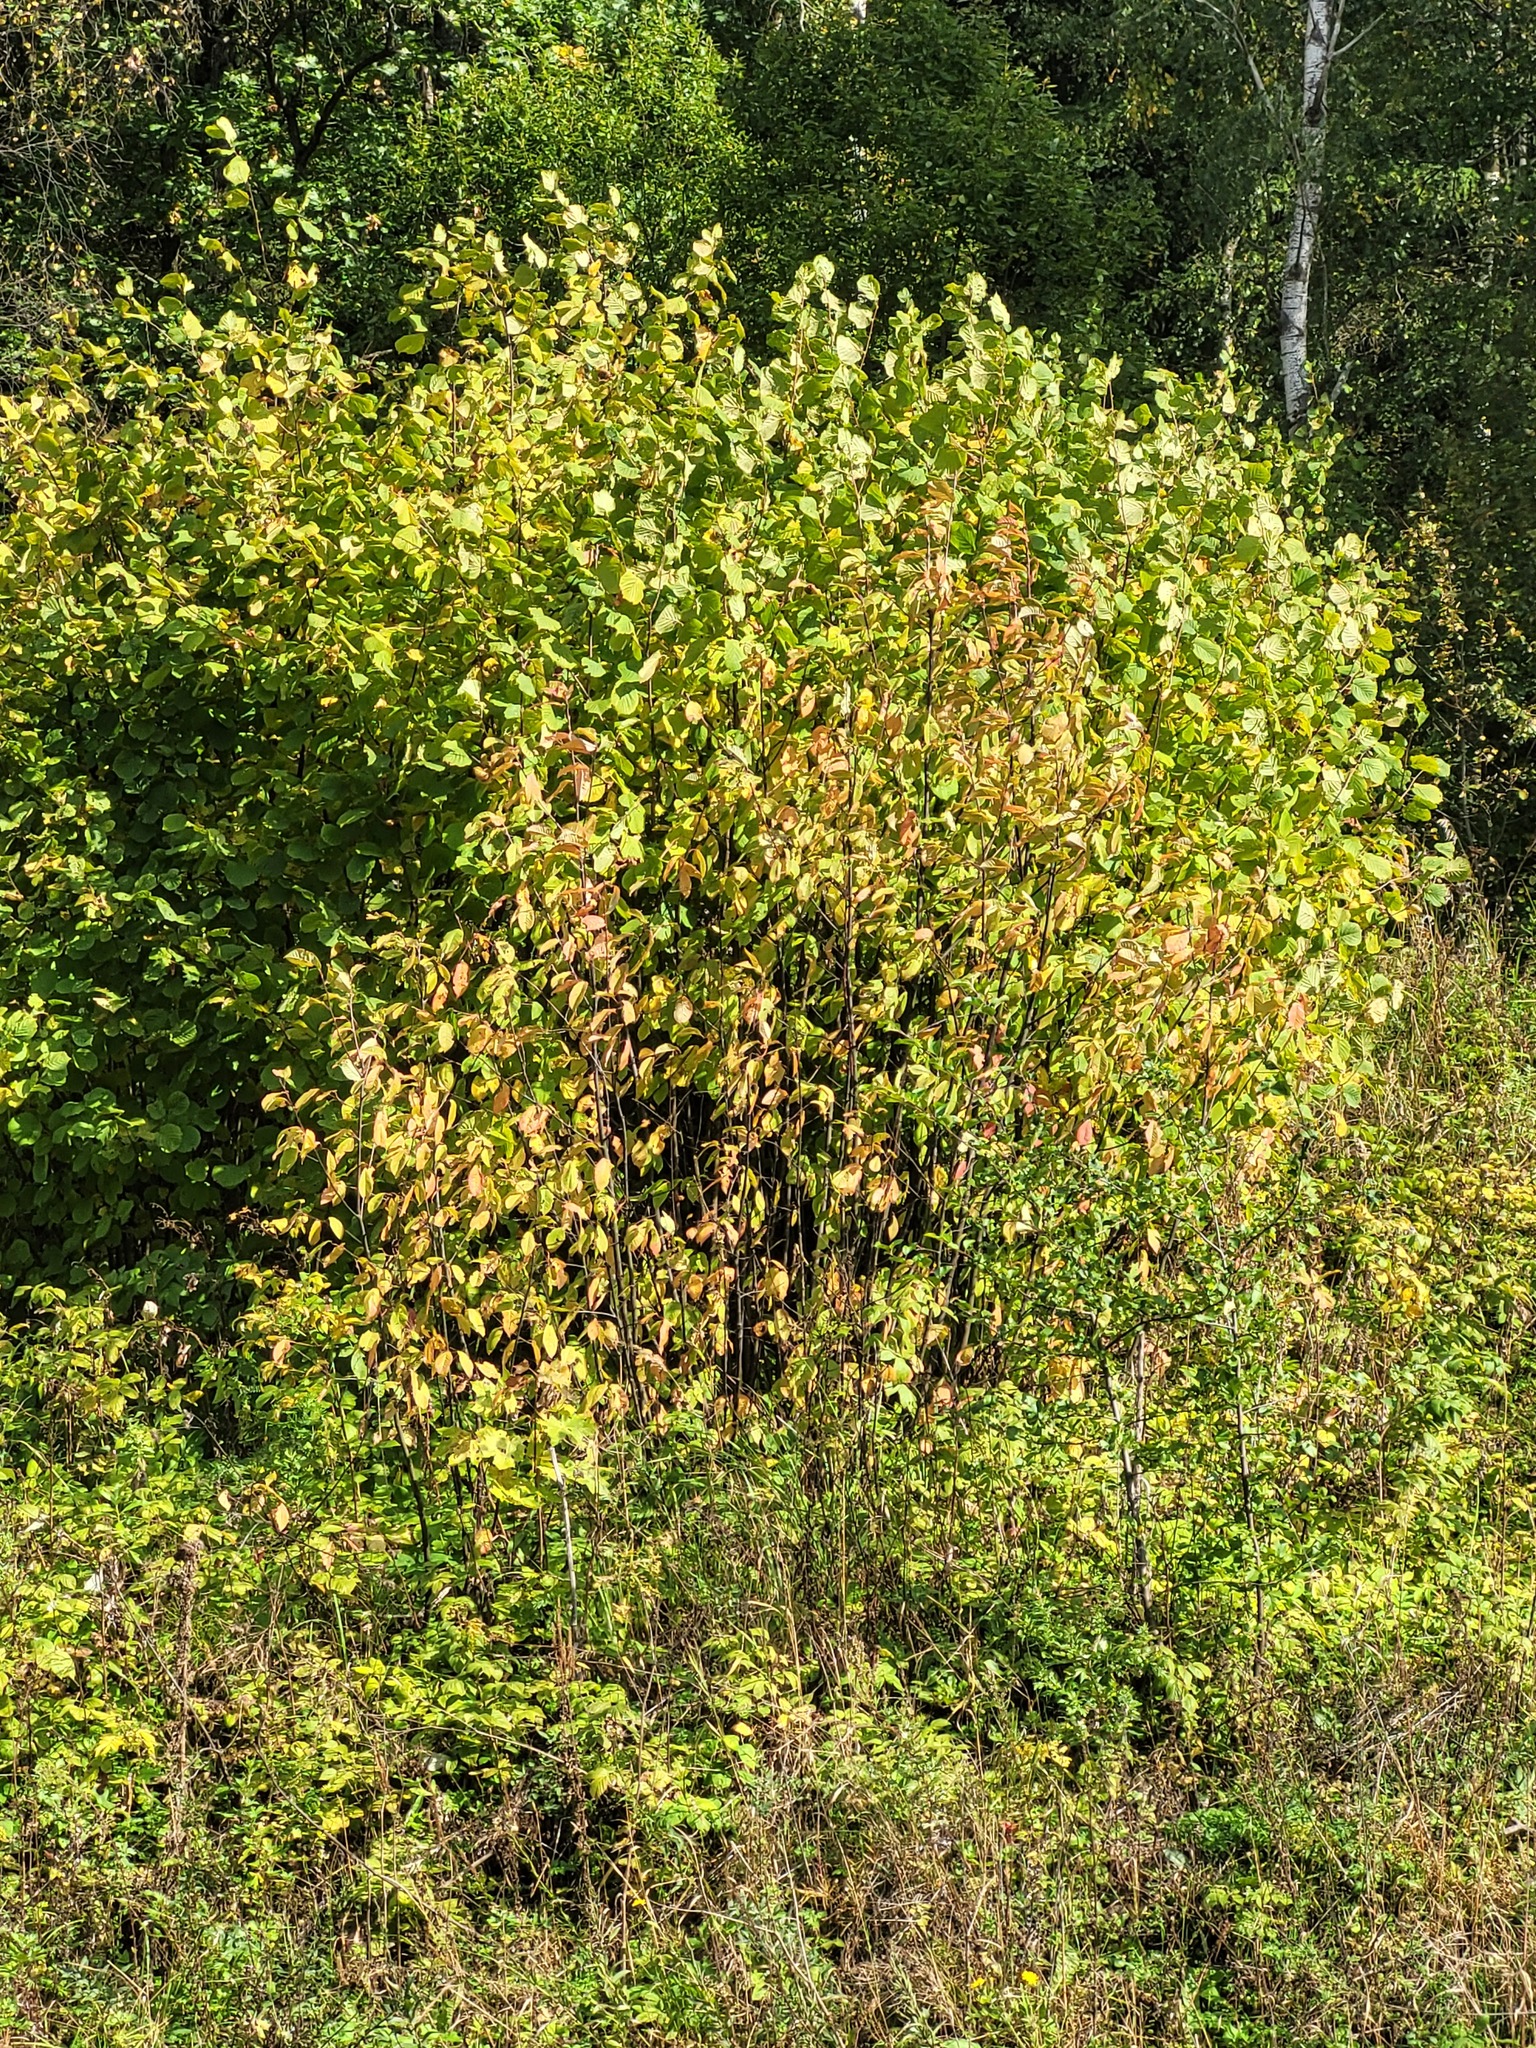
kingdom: Plantae
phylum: Tracheophyta
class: Magnoliopsida
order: Rosales
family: Rosaceae
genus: Prunus
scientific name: Prunus padus
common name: Bird cherry
